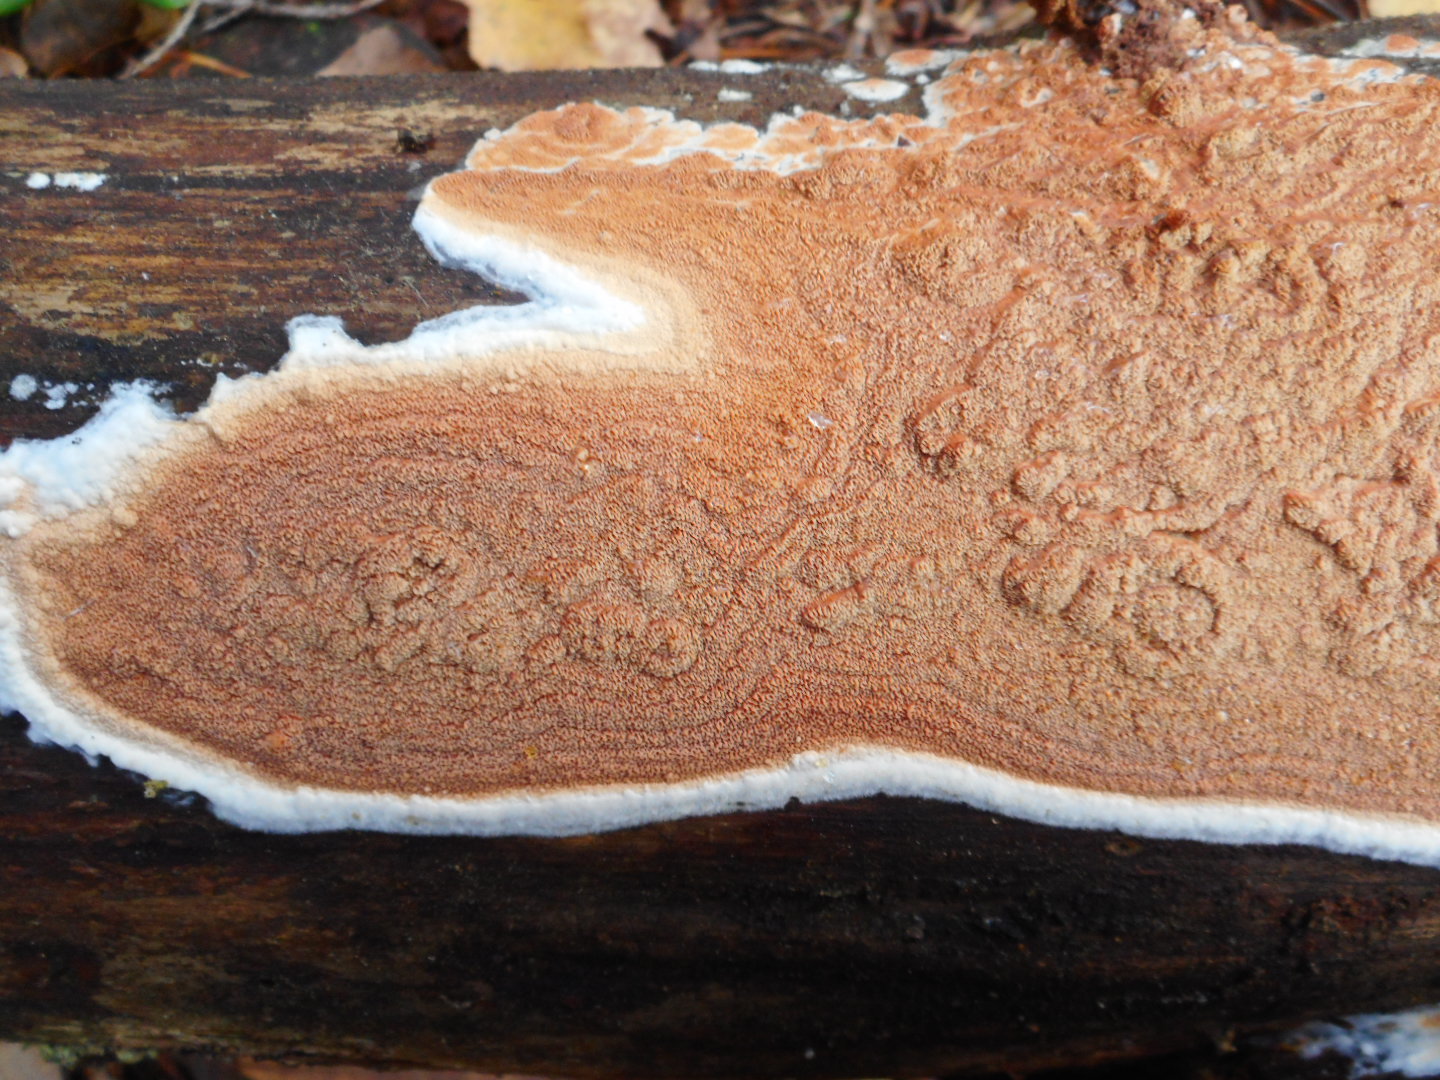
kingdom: Fungi
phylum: Basidiomycota
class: Agaricomycetes
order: Polyporales
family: Irpicaceae
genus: Meruliopsis
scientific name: Meruliopsis taxicola
